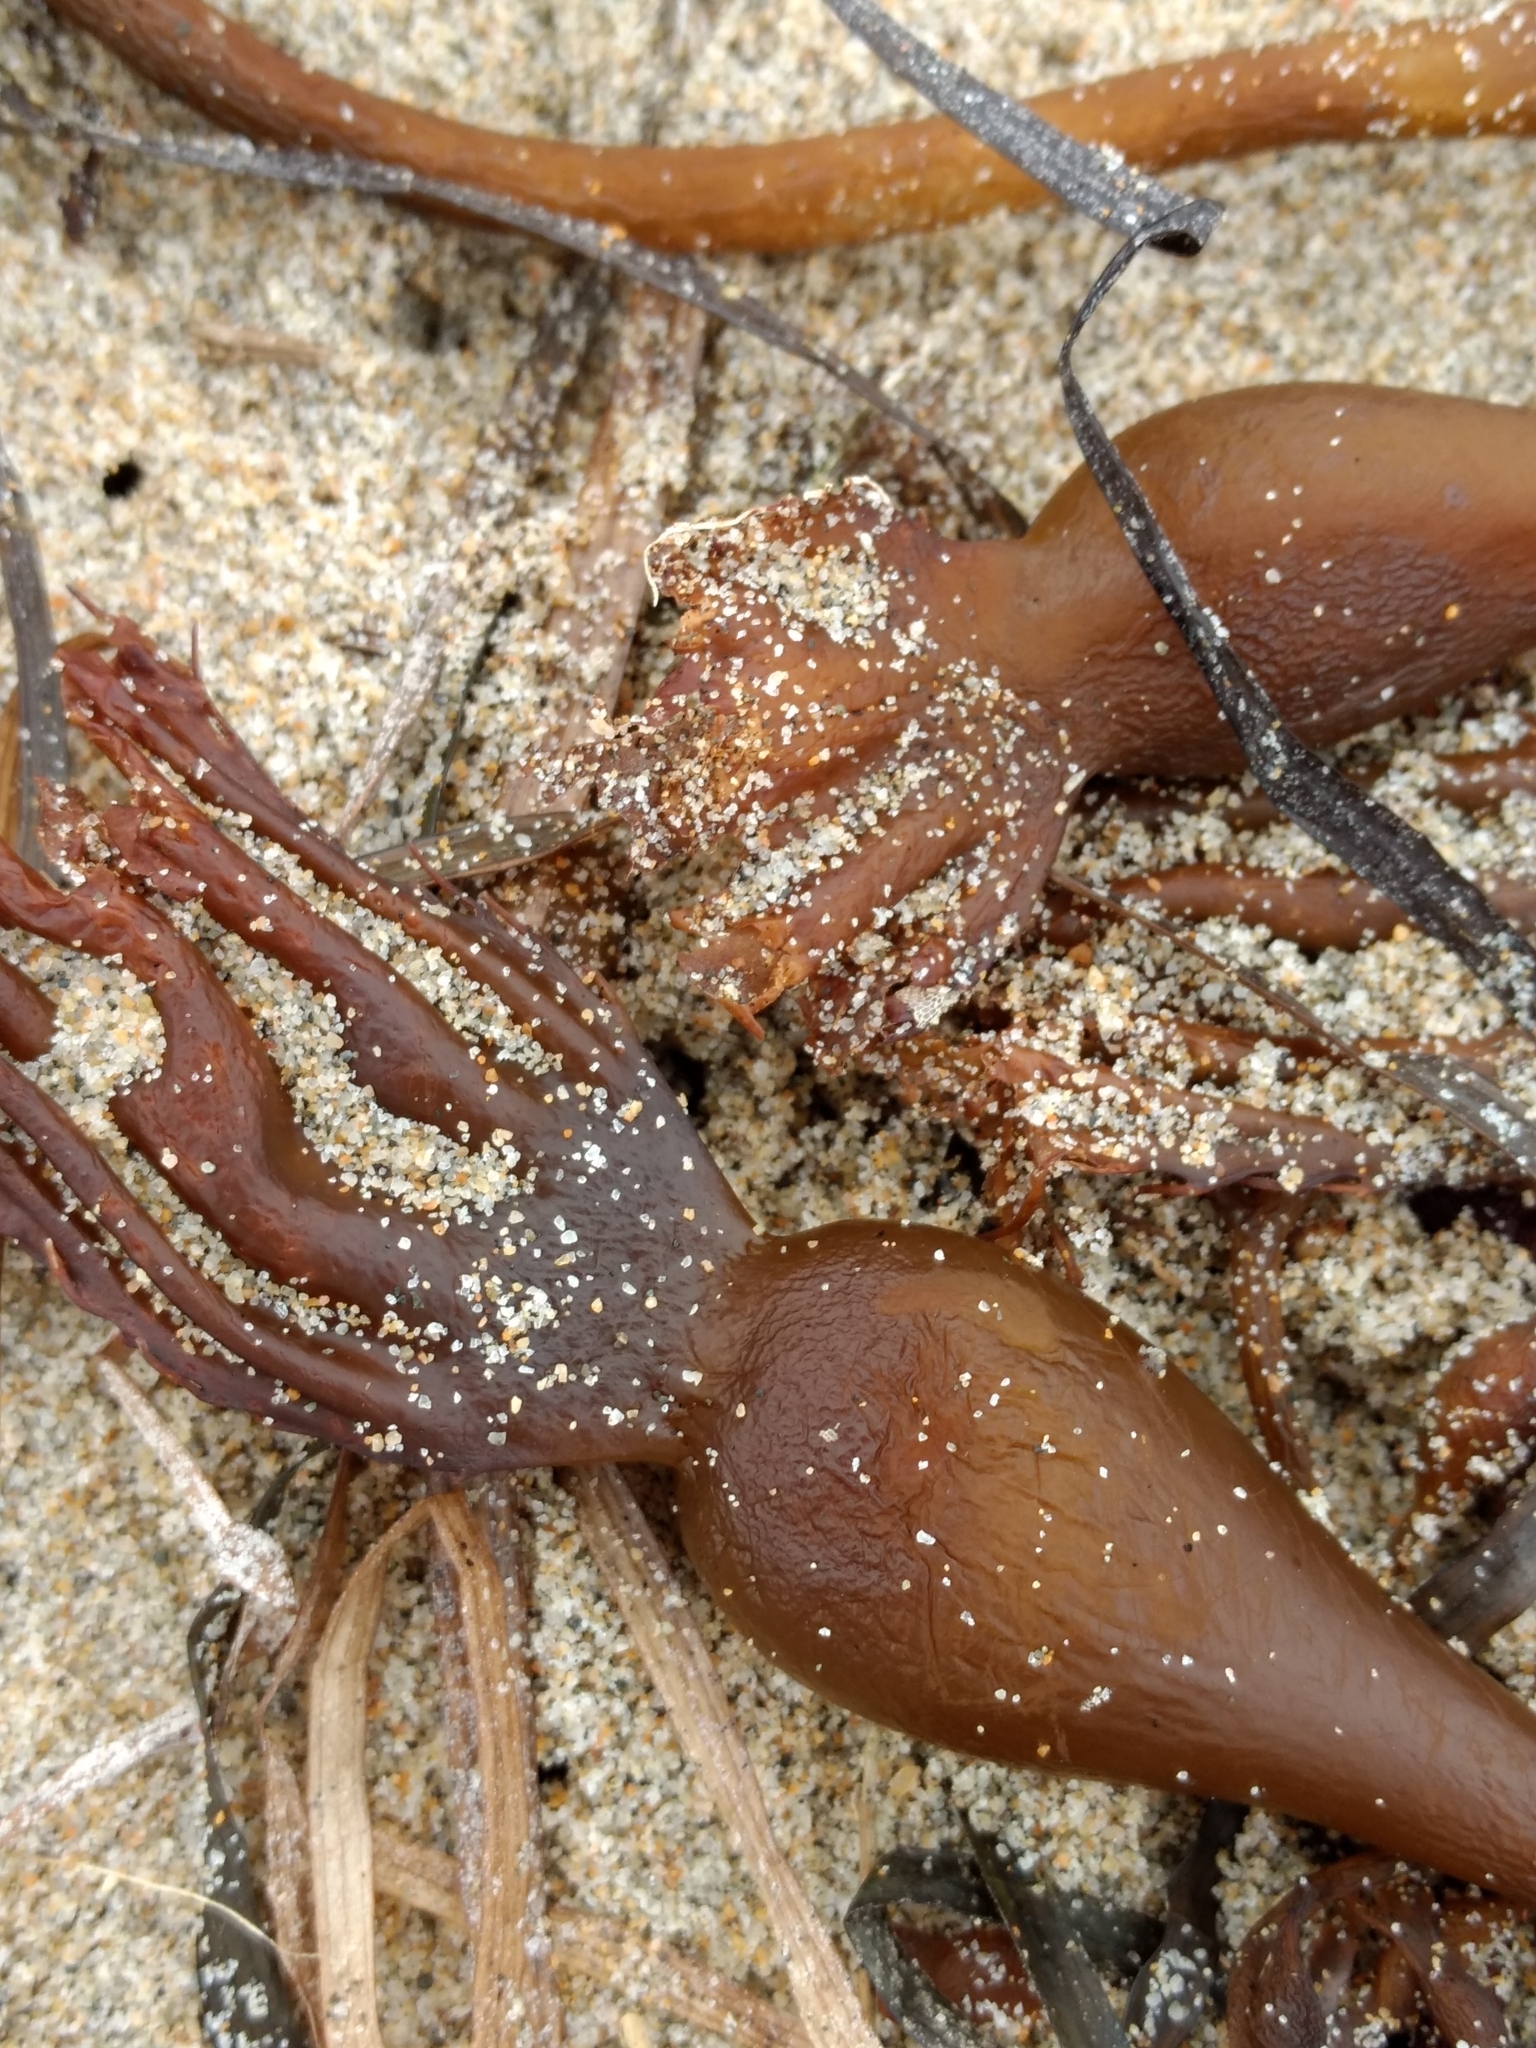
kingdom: Chromista
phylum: Ochrophyta
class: Phaeophyceae
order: Laminariales
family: Laminariaceae
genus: Macrocystis
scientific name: Macrocystis pyrifera
